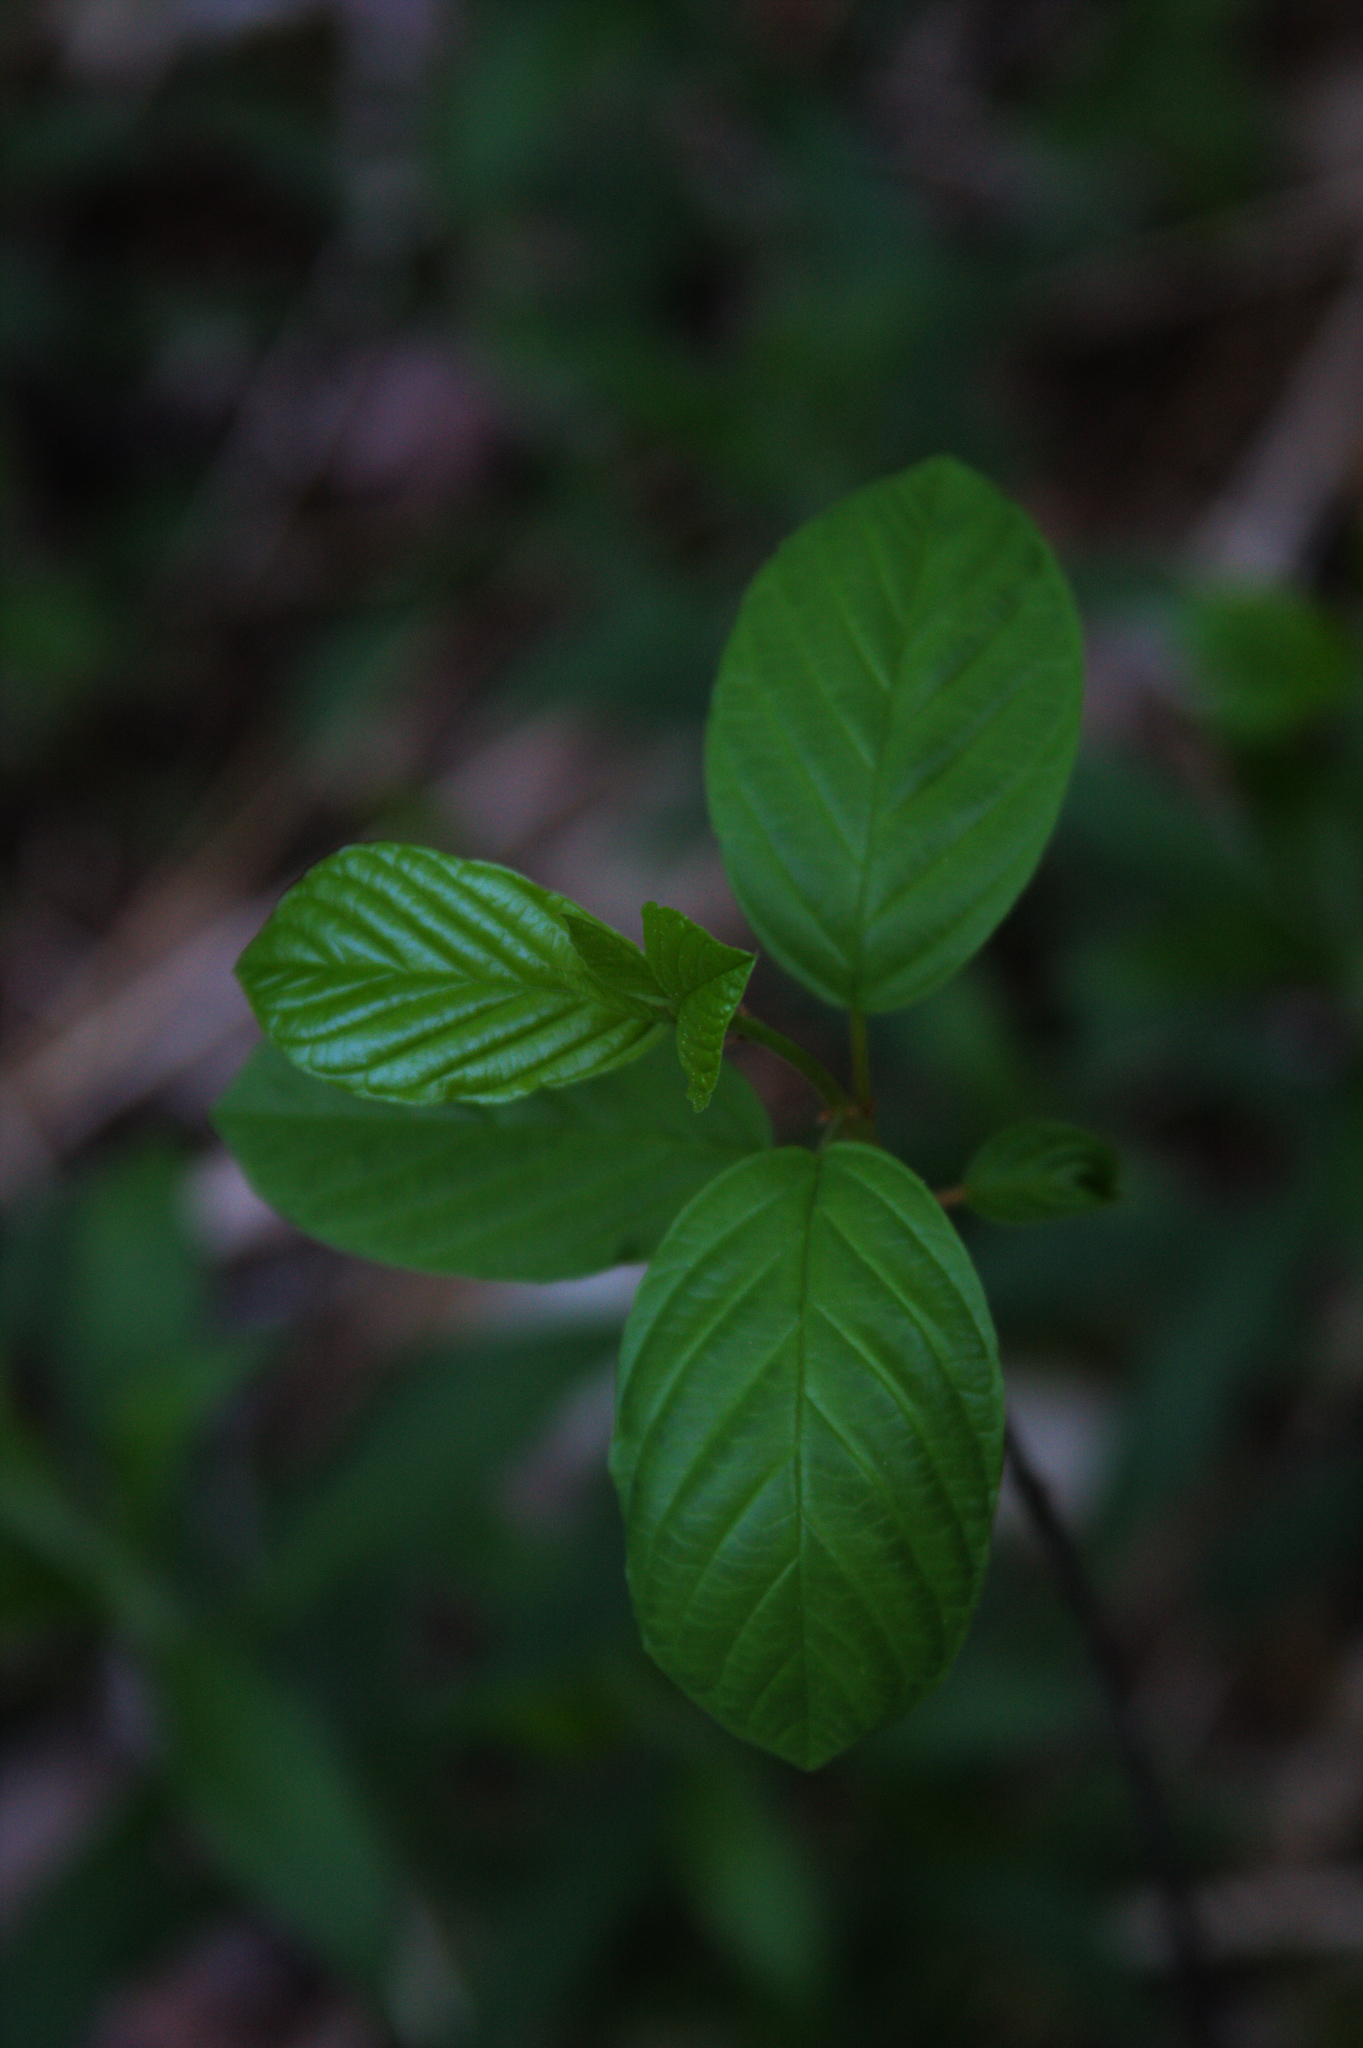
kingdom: Plantae
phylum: Tracheophyta
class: Magnoliopsida
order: Rosales
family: Rhamnaceae
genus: Frangula
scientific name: Frangula alnus
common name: Alder buckthorn
